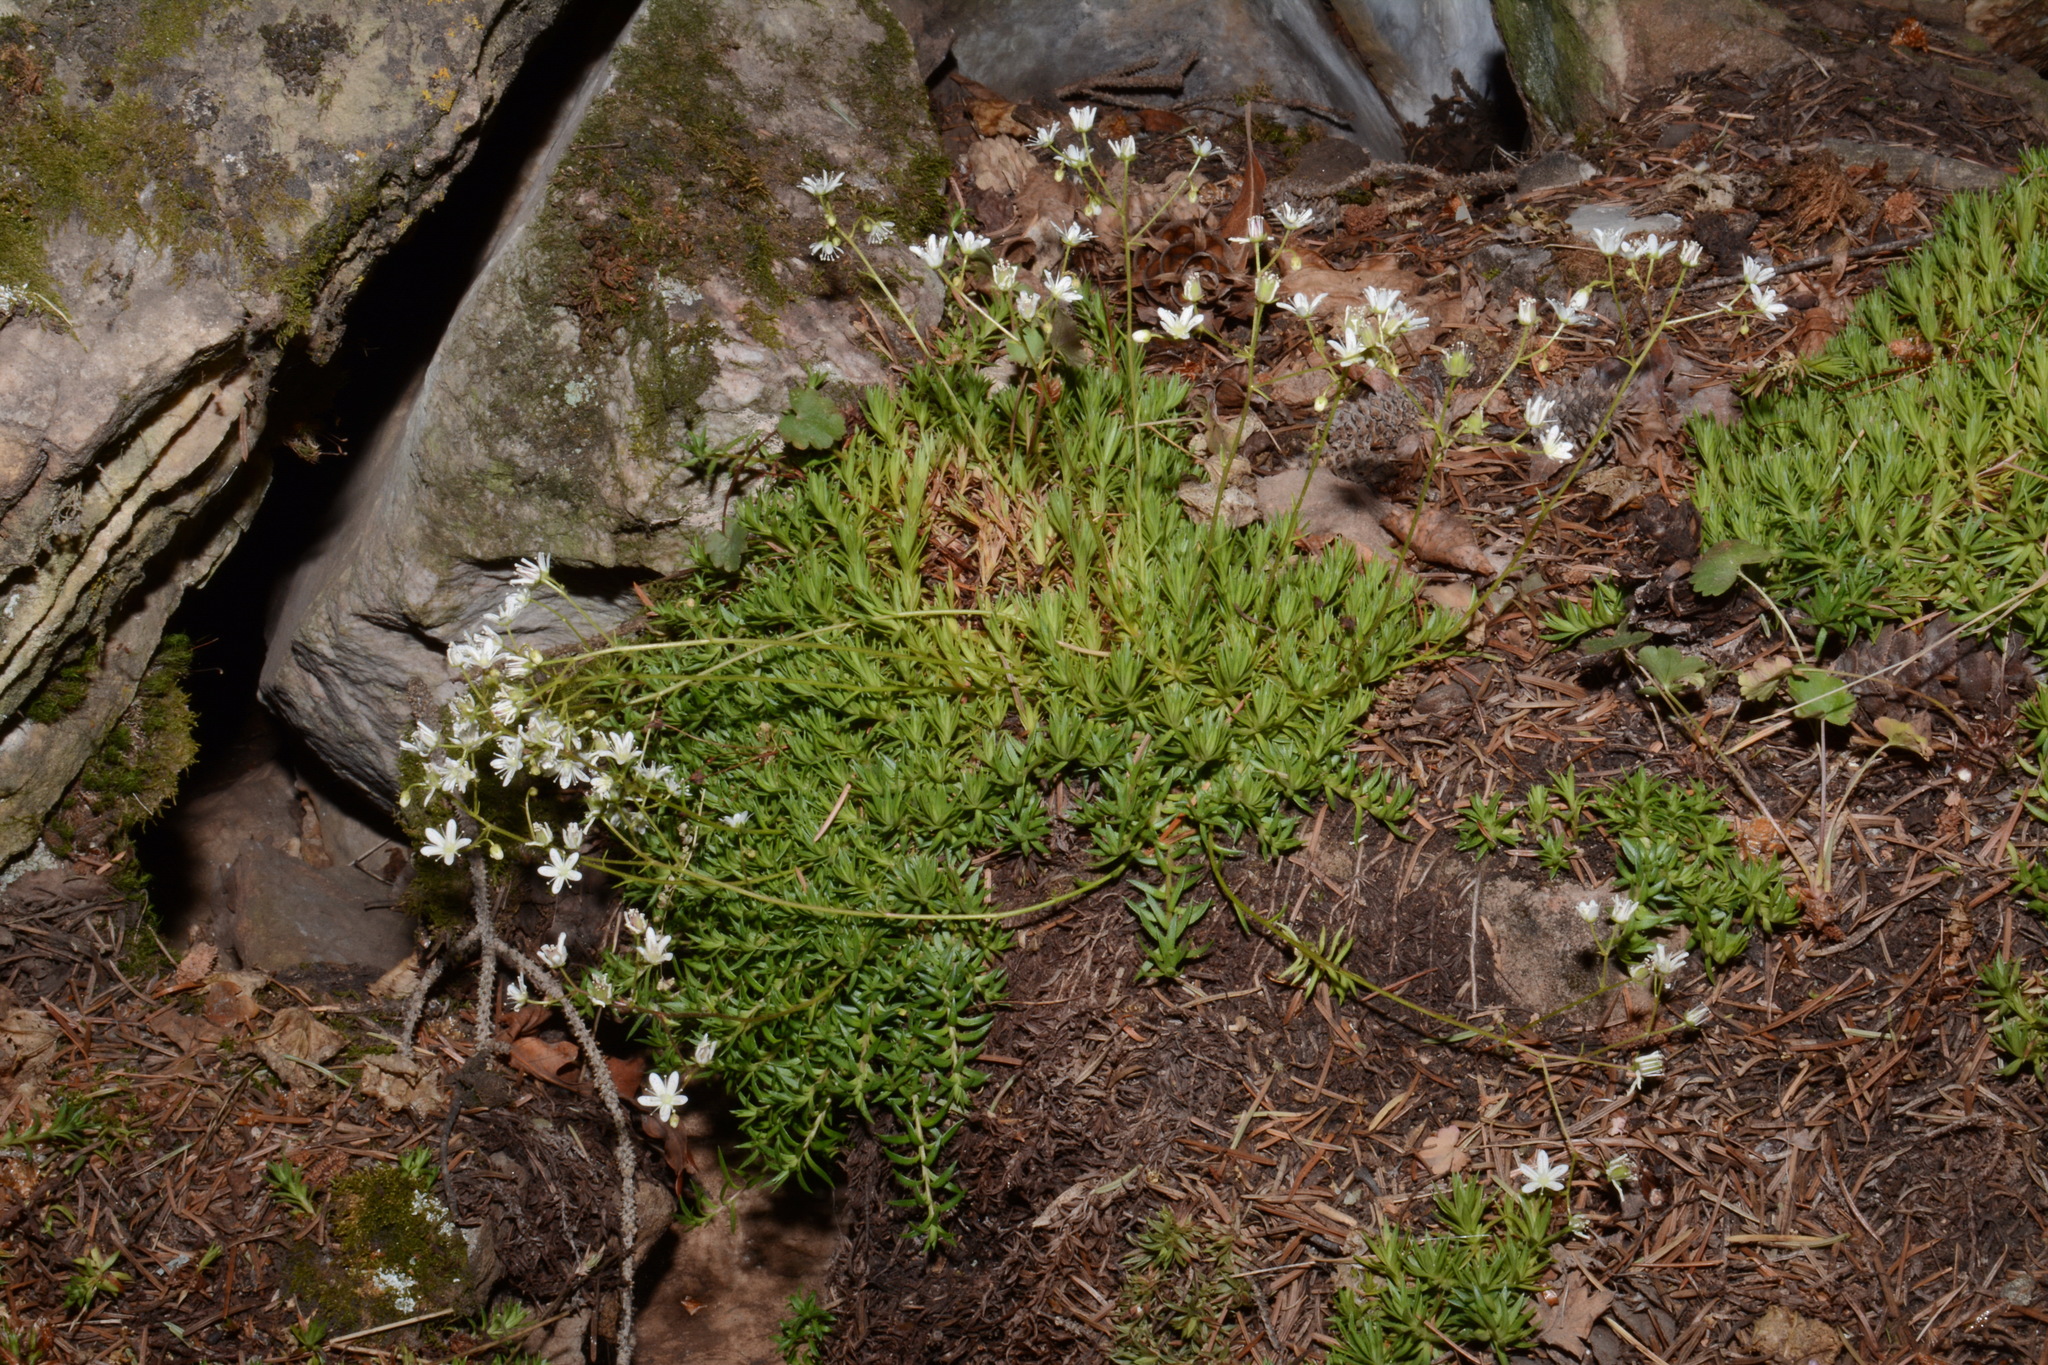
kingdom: Plantae
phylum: Tracheophyta
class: Magnoliopsida
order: Saxifragales
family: Saxifragaceae
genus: Saxifraga
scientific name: Saxifraga bronchialis
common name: Matted saxifrage
